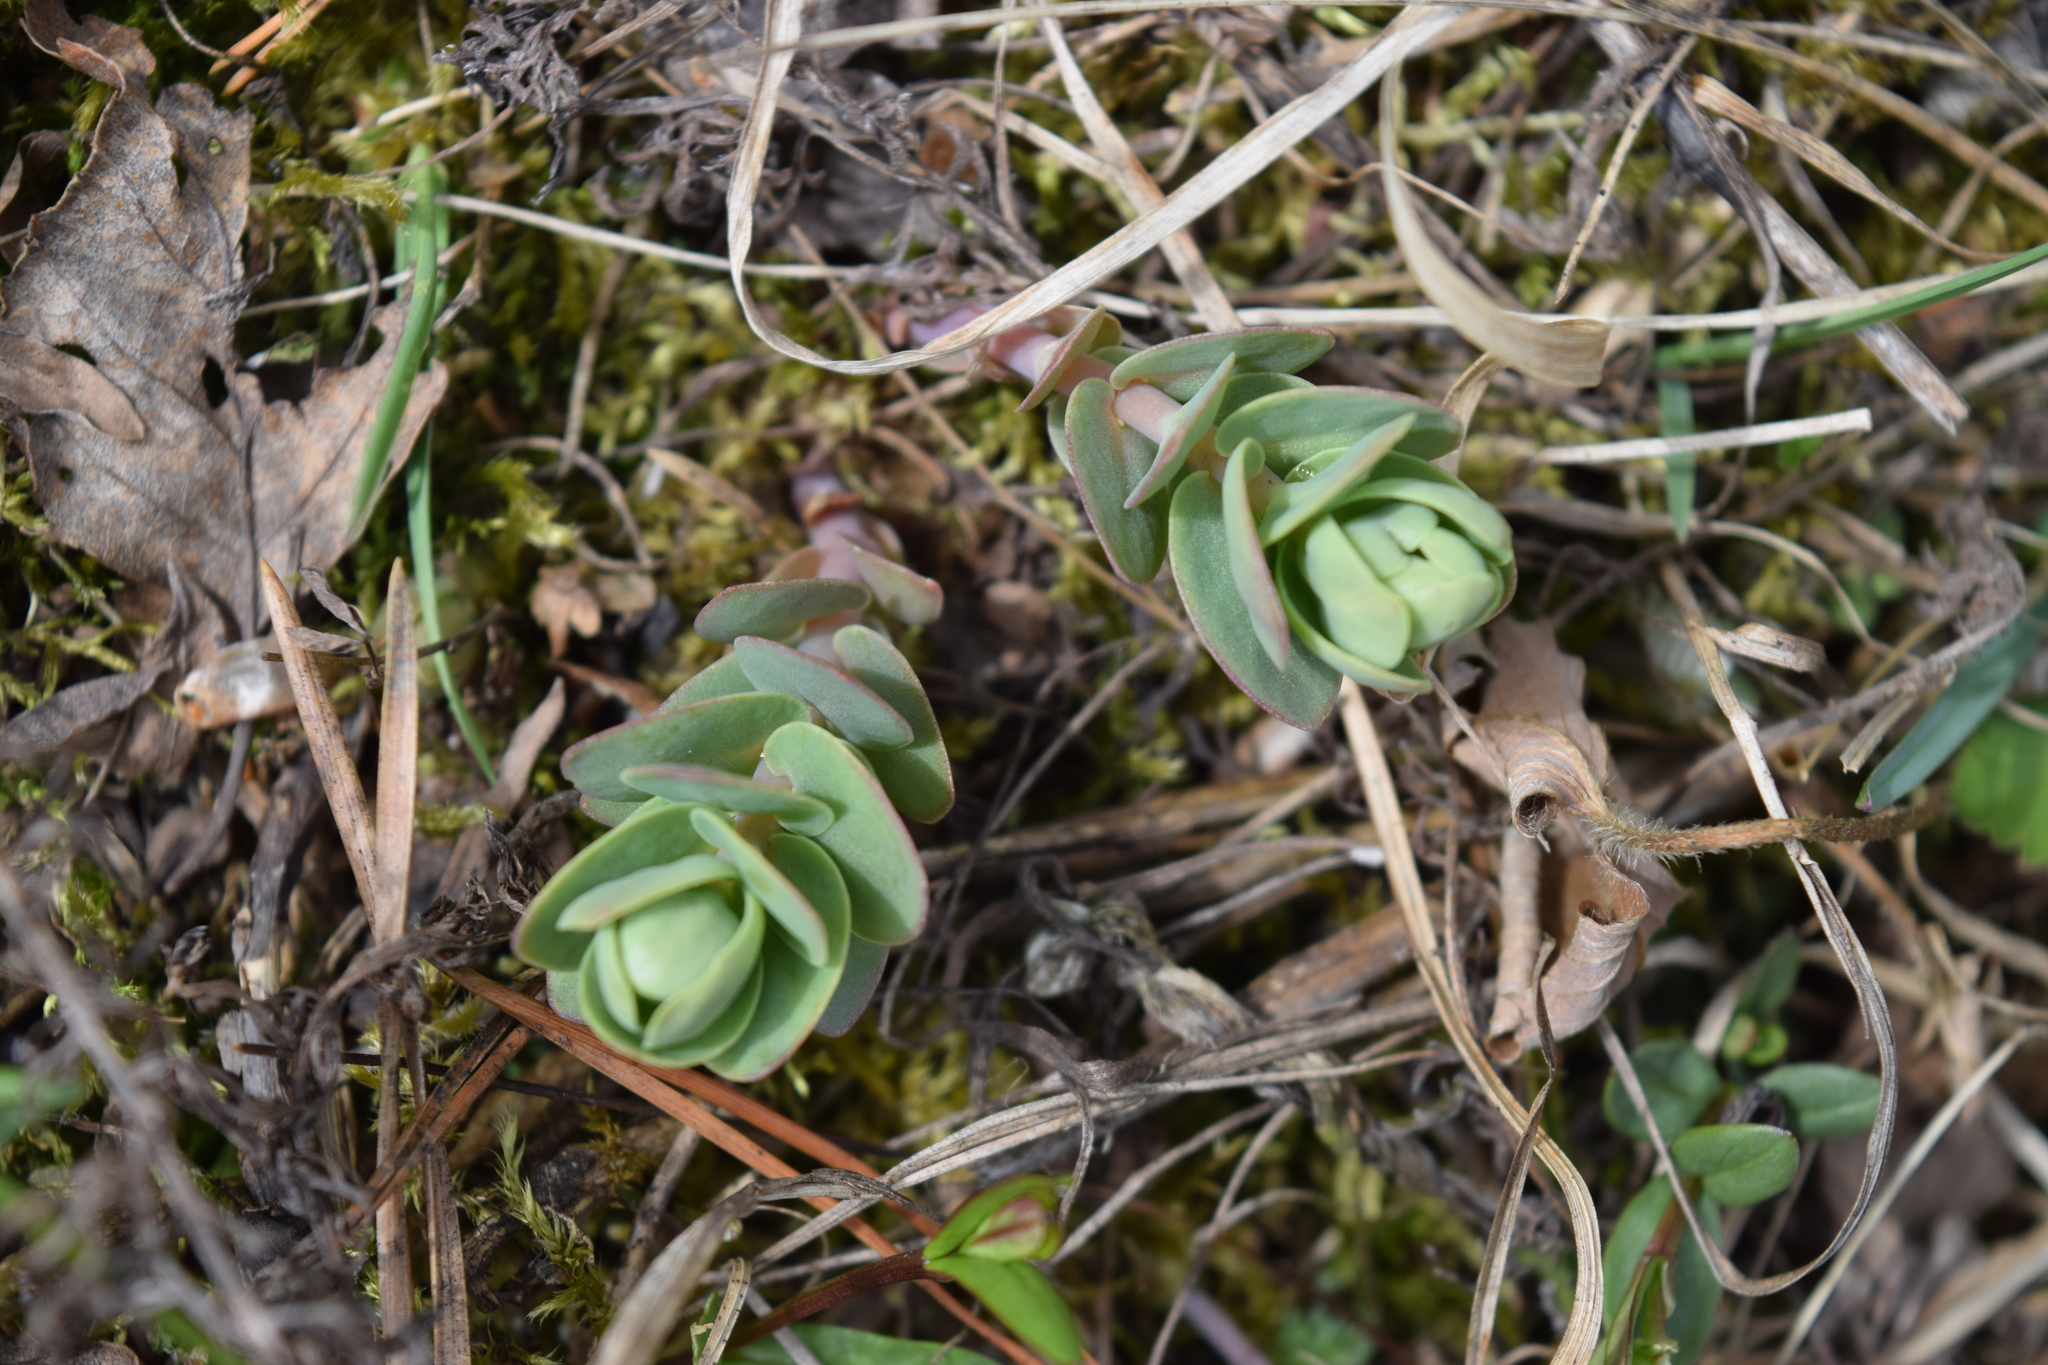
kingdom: Plantae
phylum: Tracheophyta
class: Magnoliopsida
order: Saxifragales
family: Crassulaceae
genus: Hylotelephium
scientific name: Hylotelephium maximum
